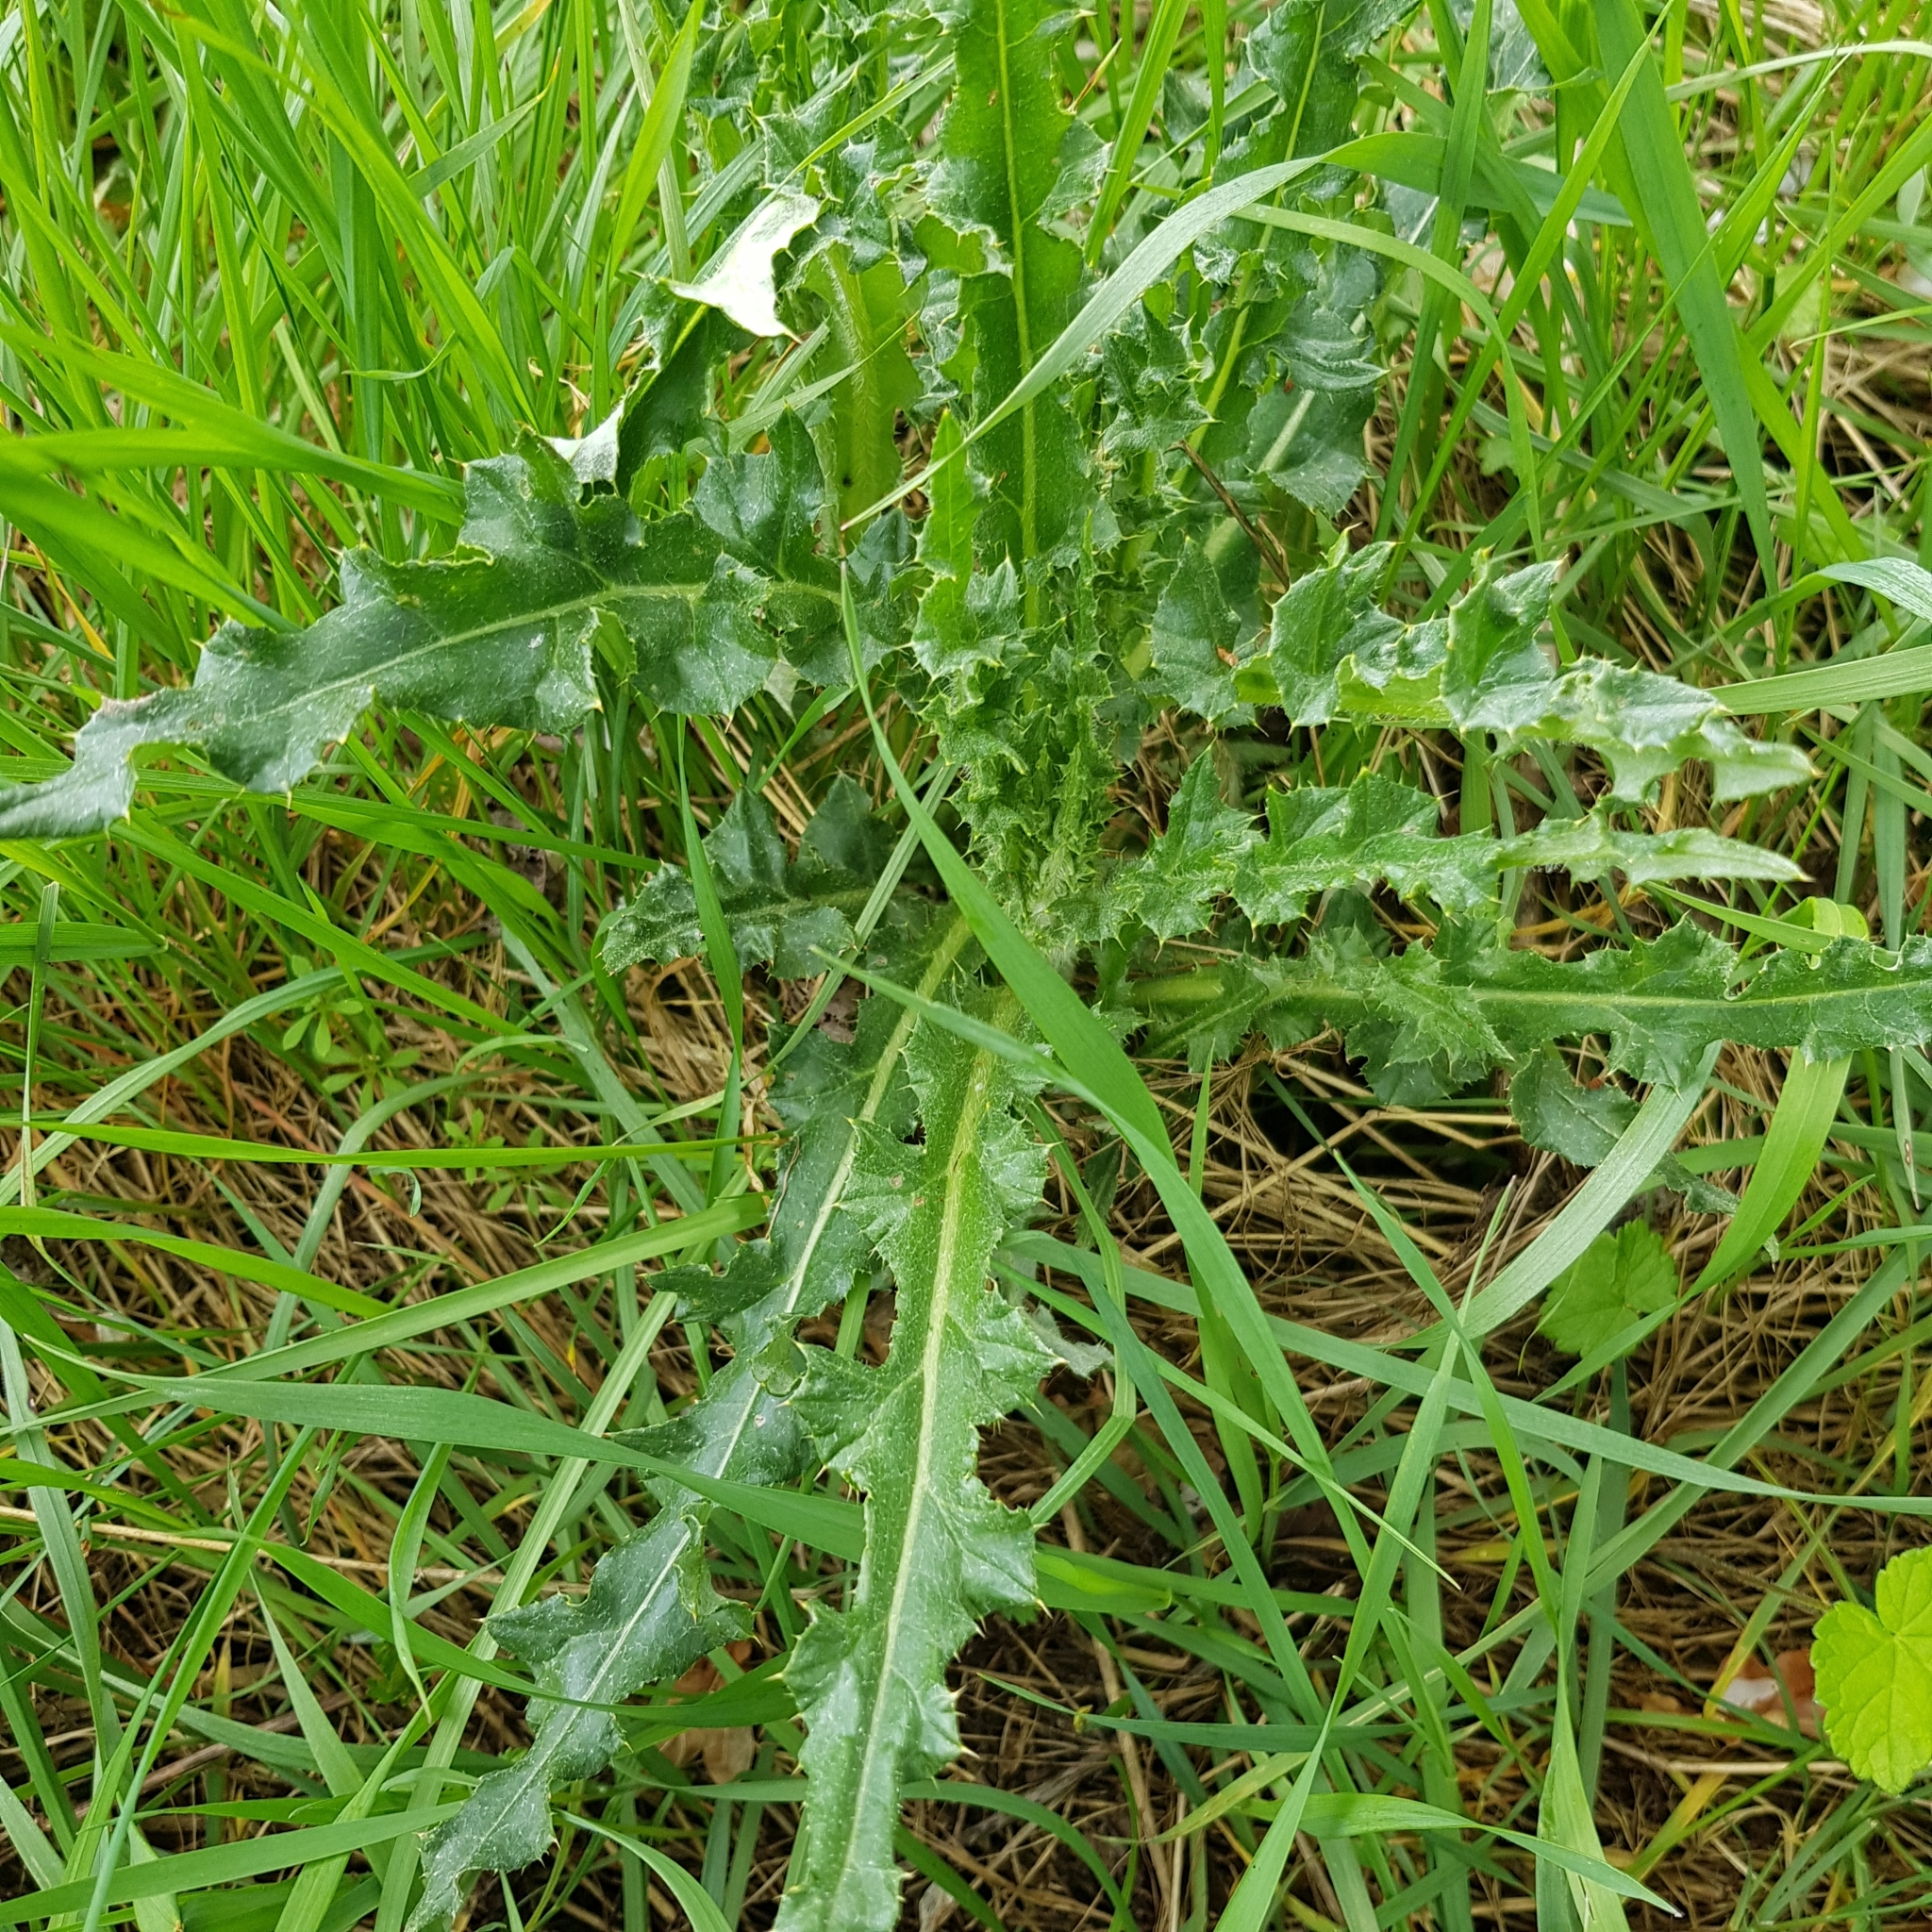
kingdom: Plantae
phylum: Tracheophyta
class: Magnoliopsida
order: Asterales
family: Asteraceae
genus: Cirsium
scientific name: Cirsium arvense
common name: Creeping thistle
